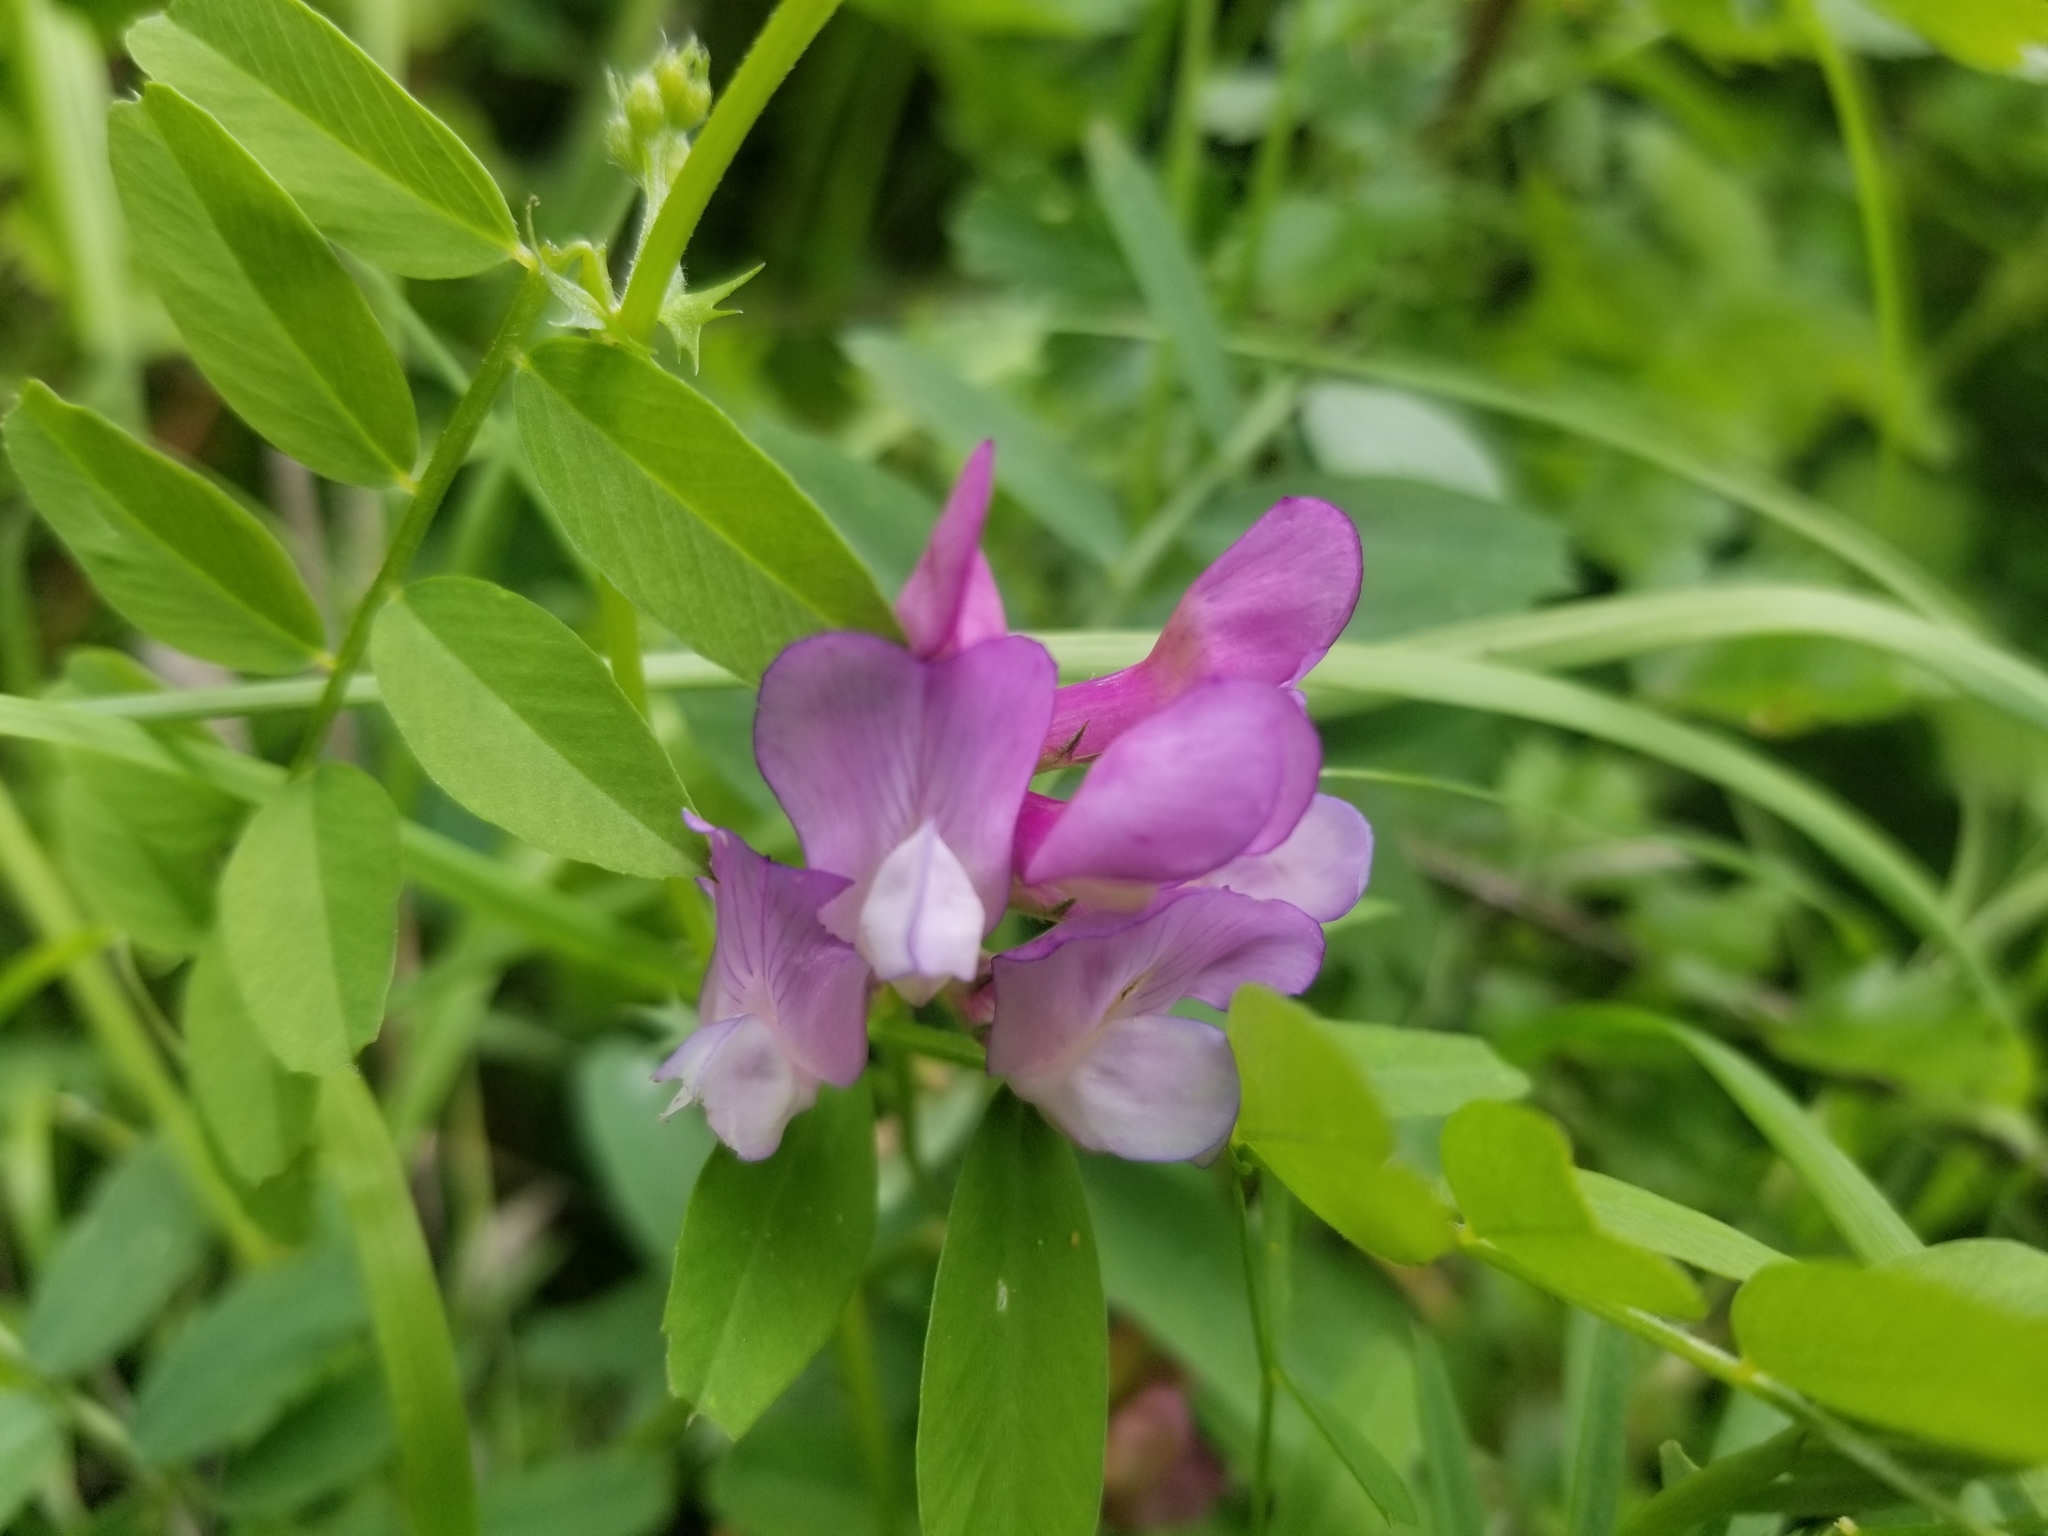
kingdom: Plantae
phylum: Tracheophyta
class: Magnoliopsida
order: Fabales
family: Fabaceae
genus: Vicia
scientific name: Vicia americana
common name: American vetch
